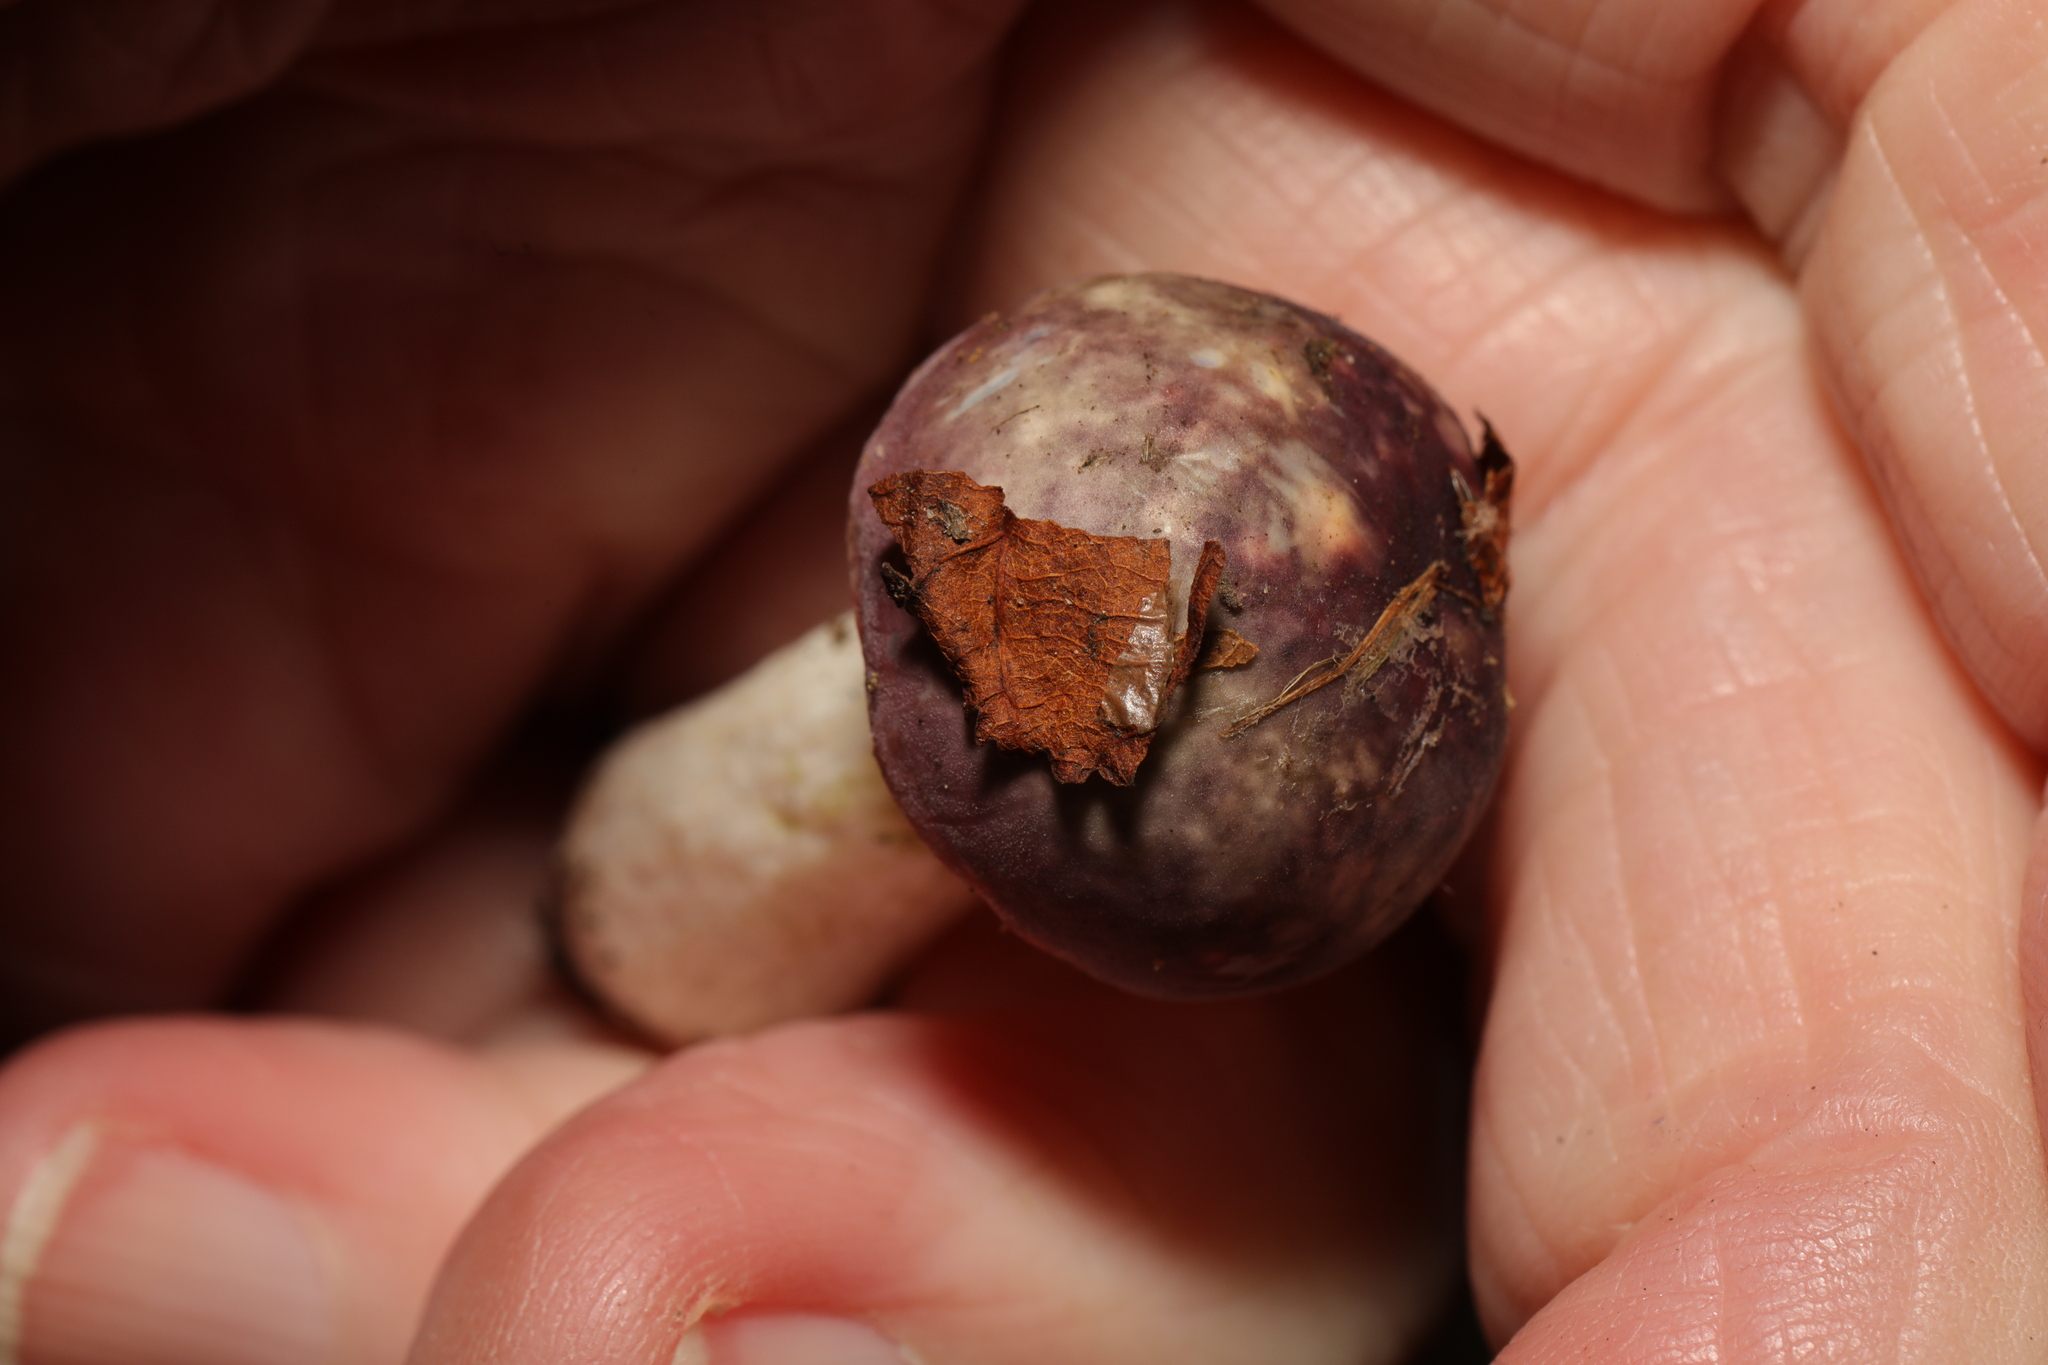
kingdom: Plantae
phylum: Tracheophyta
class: Magnoliopsida
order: Sapindales
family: Sapindaceae
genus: Aesculus
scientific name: Aesculus hippocastanum
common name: Horse-chestnut
